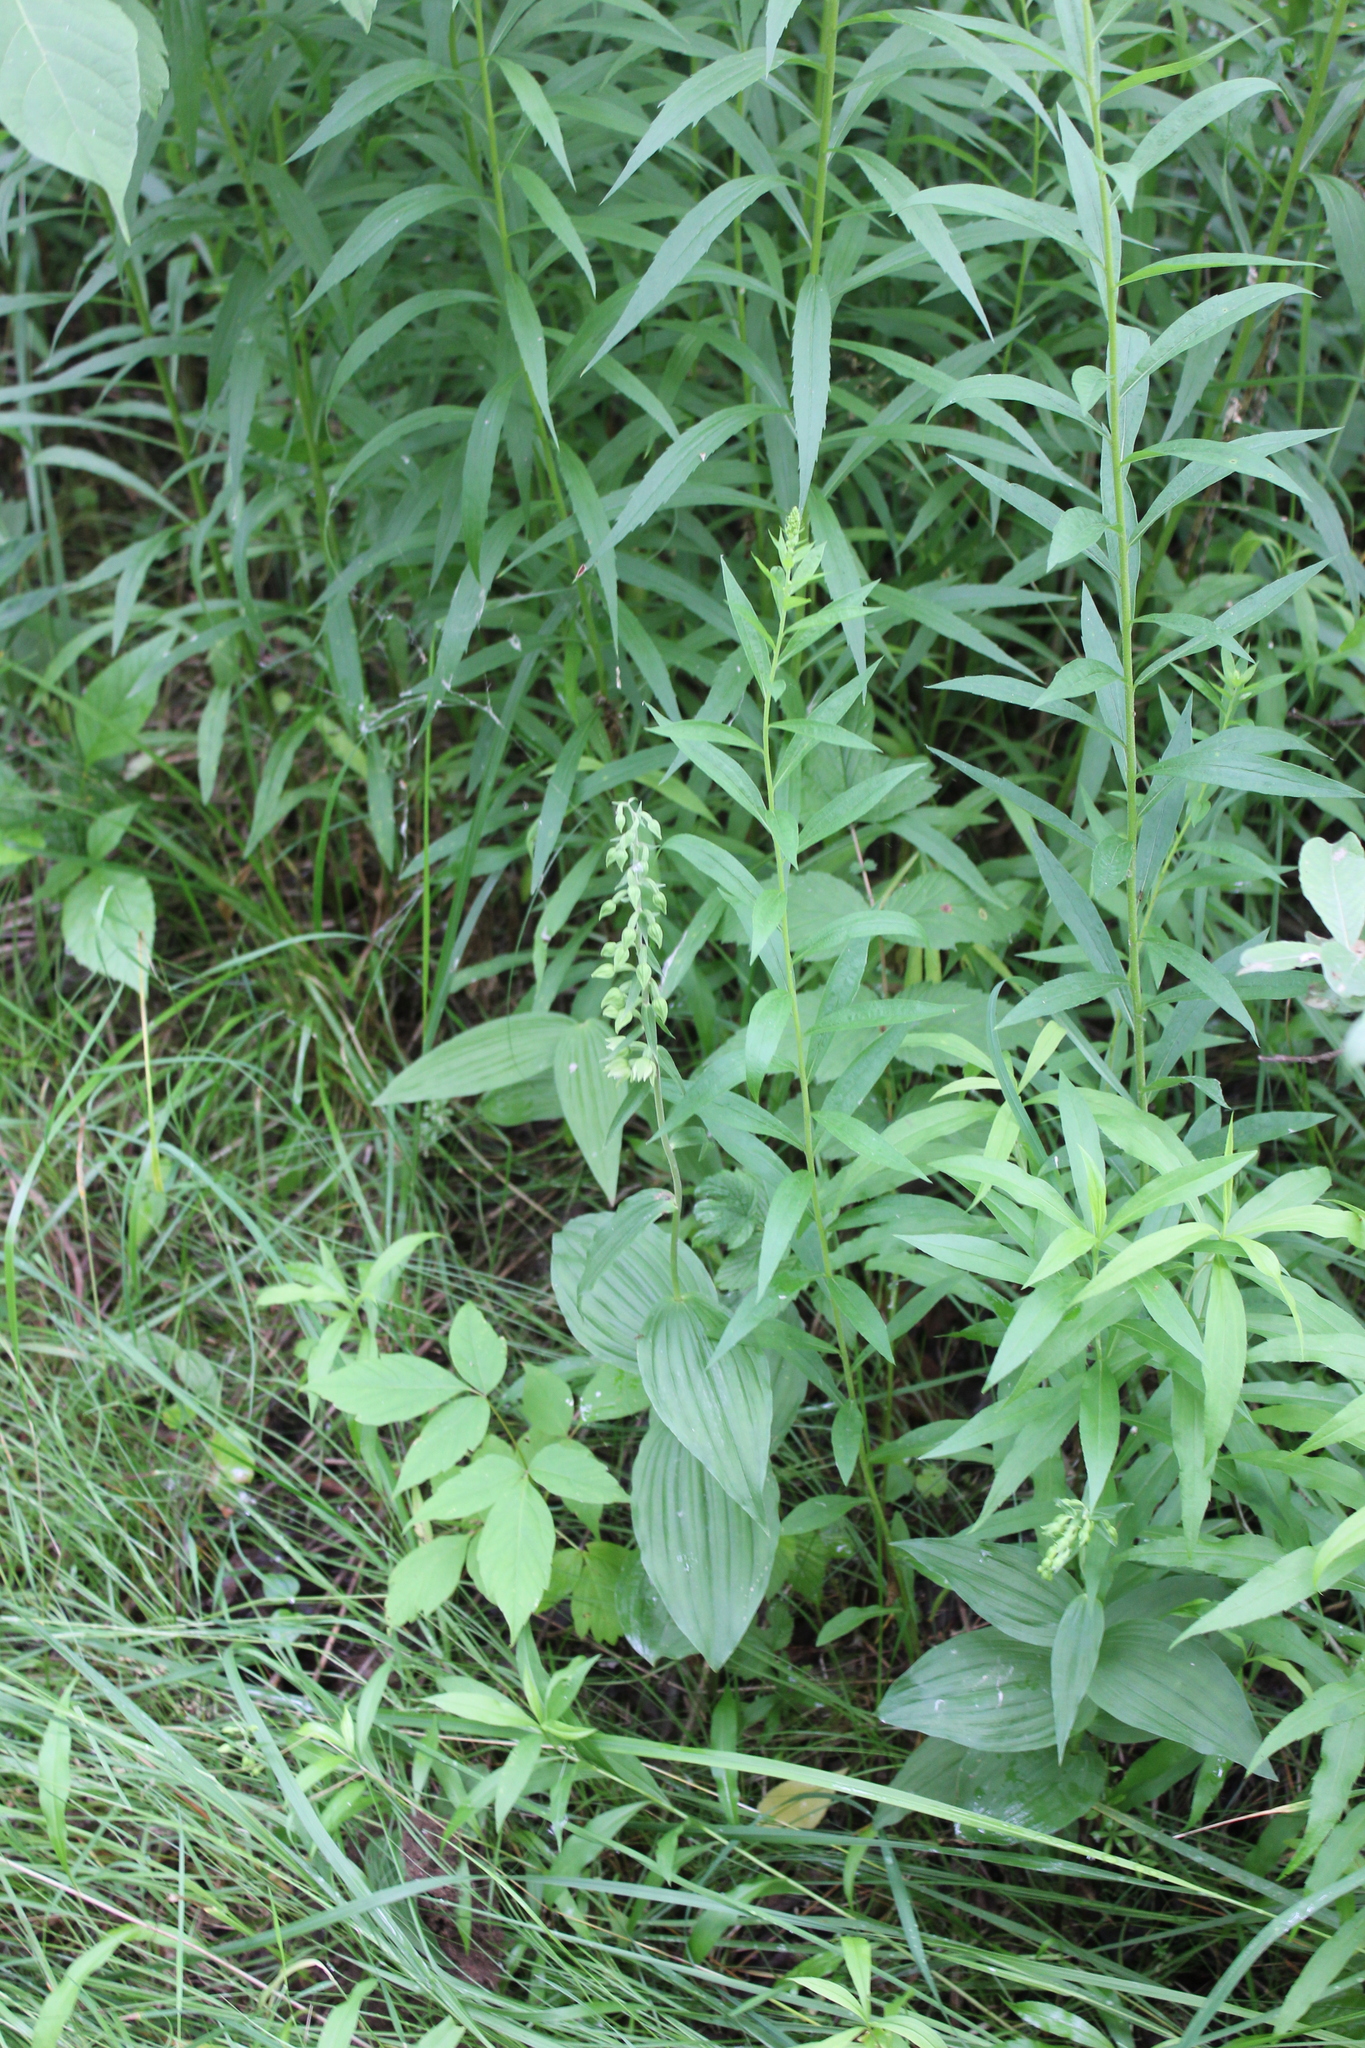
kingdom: Plantae
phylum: Tracheophyta
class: Liliopsida
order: Asparagales
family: Orchidaceae
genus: Epipactis
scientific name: Epipactis helleborine
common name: Broad-leaved helleborine
